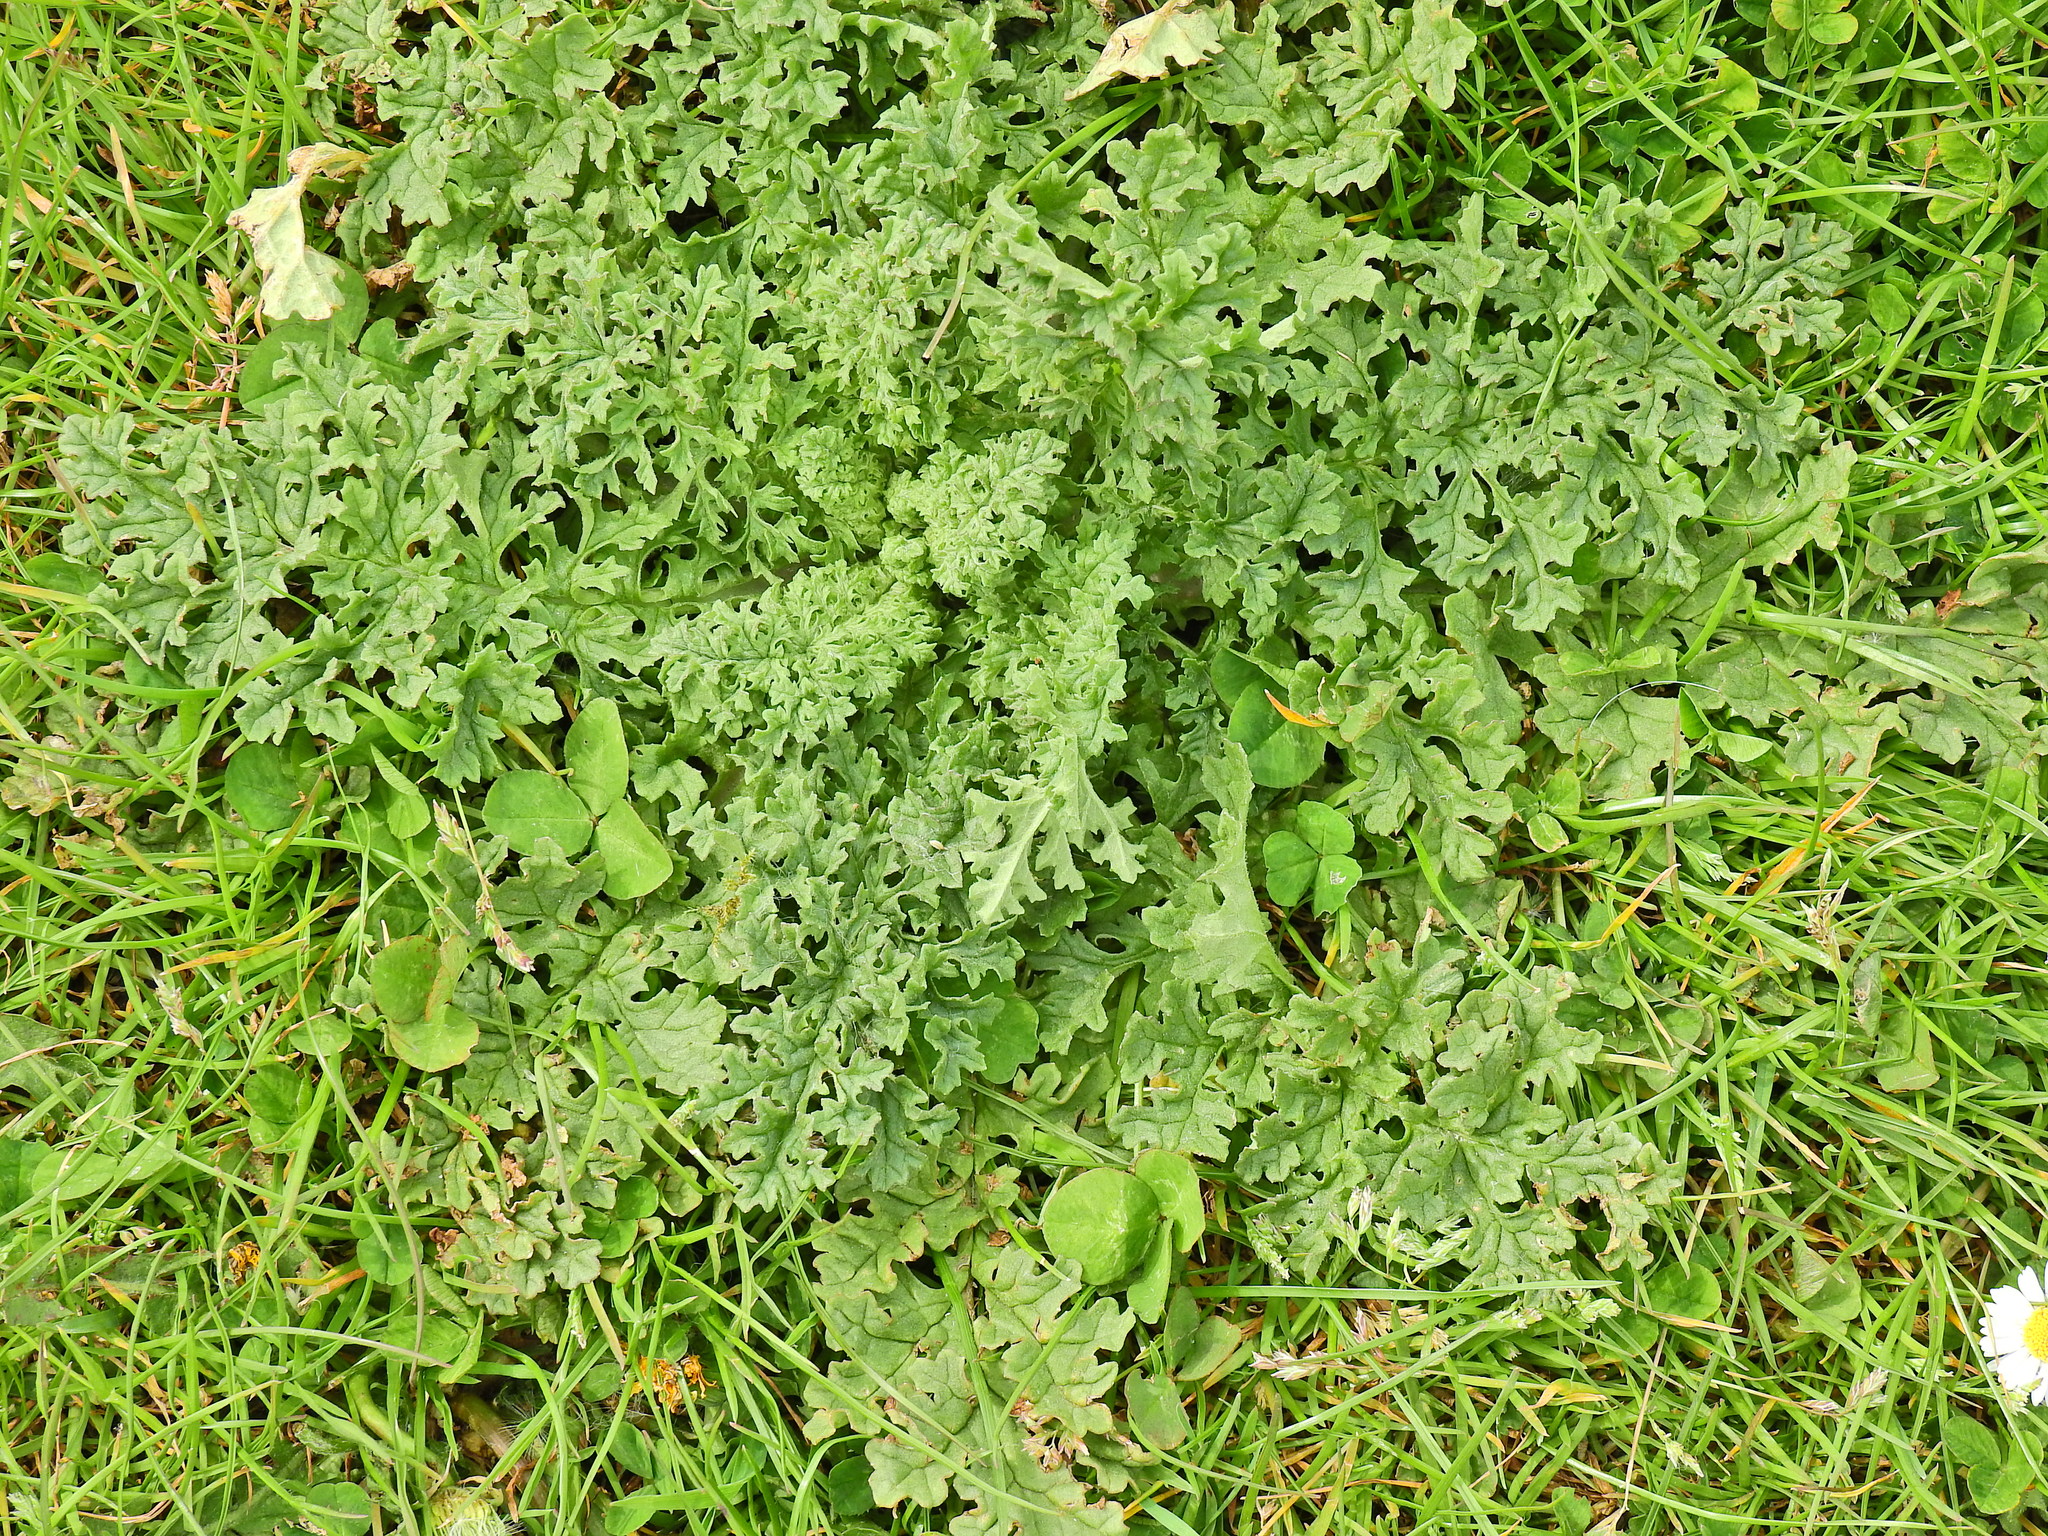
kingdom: Plantae
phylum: Tracheophyta
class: Magnoliopsida
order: Asterales
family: Asteraceae
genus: Jacobaea
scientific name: Jacobaea vulgaris
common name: Stinking willie
